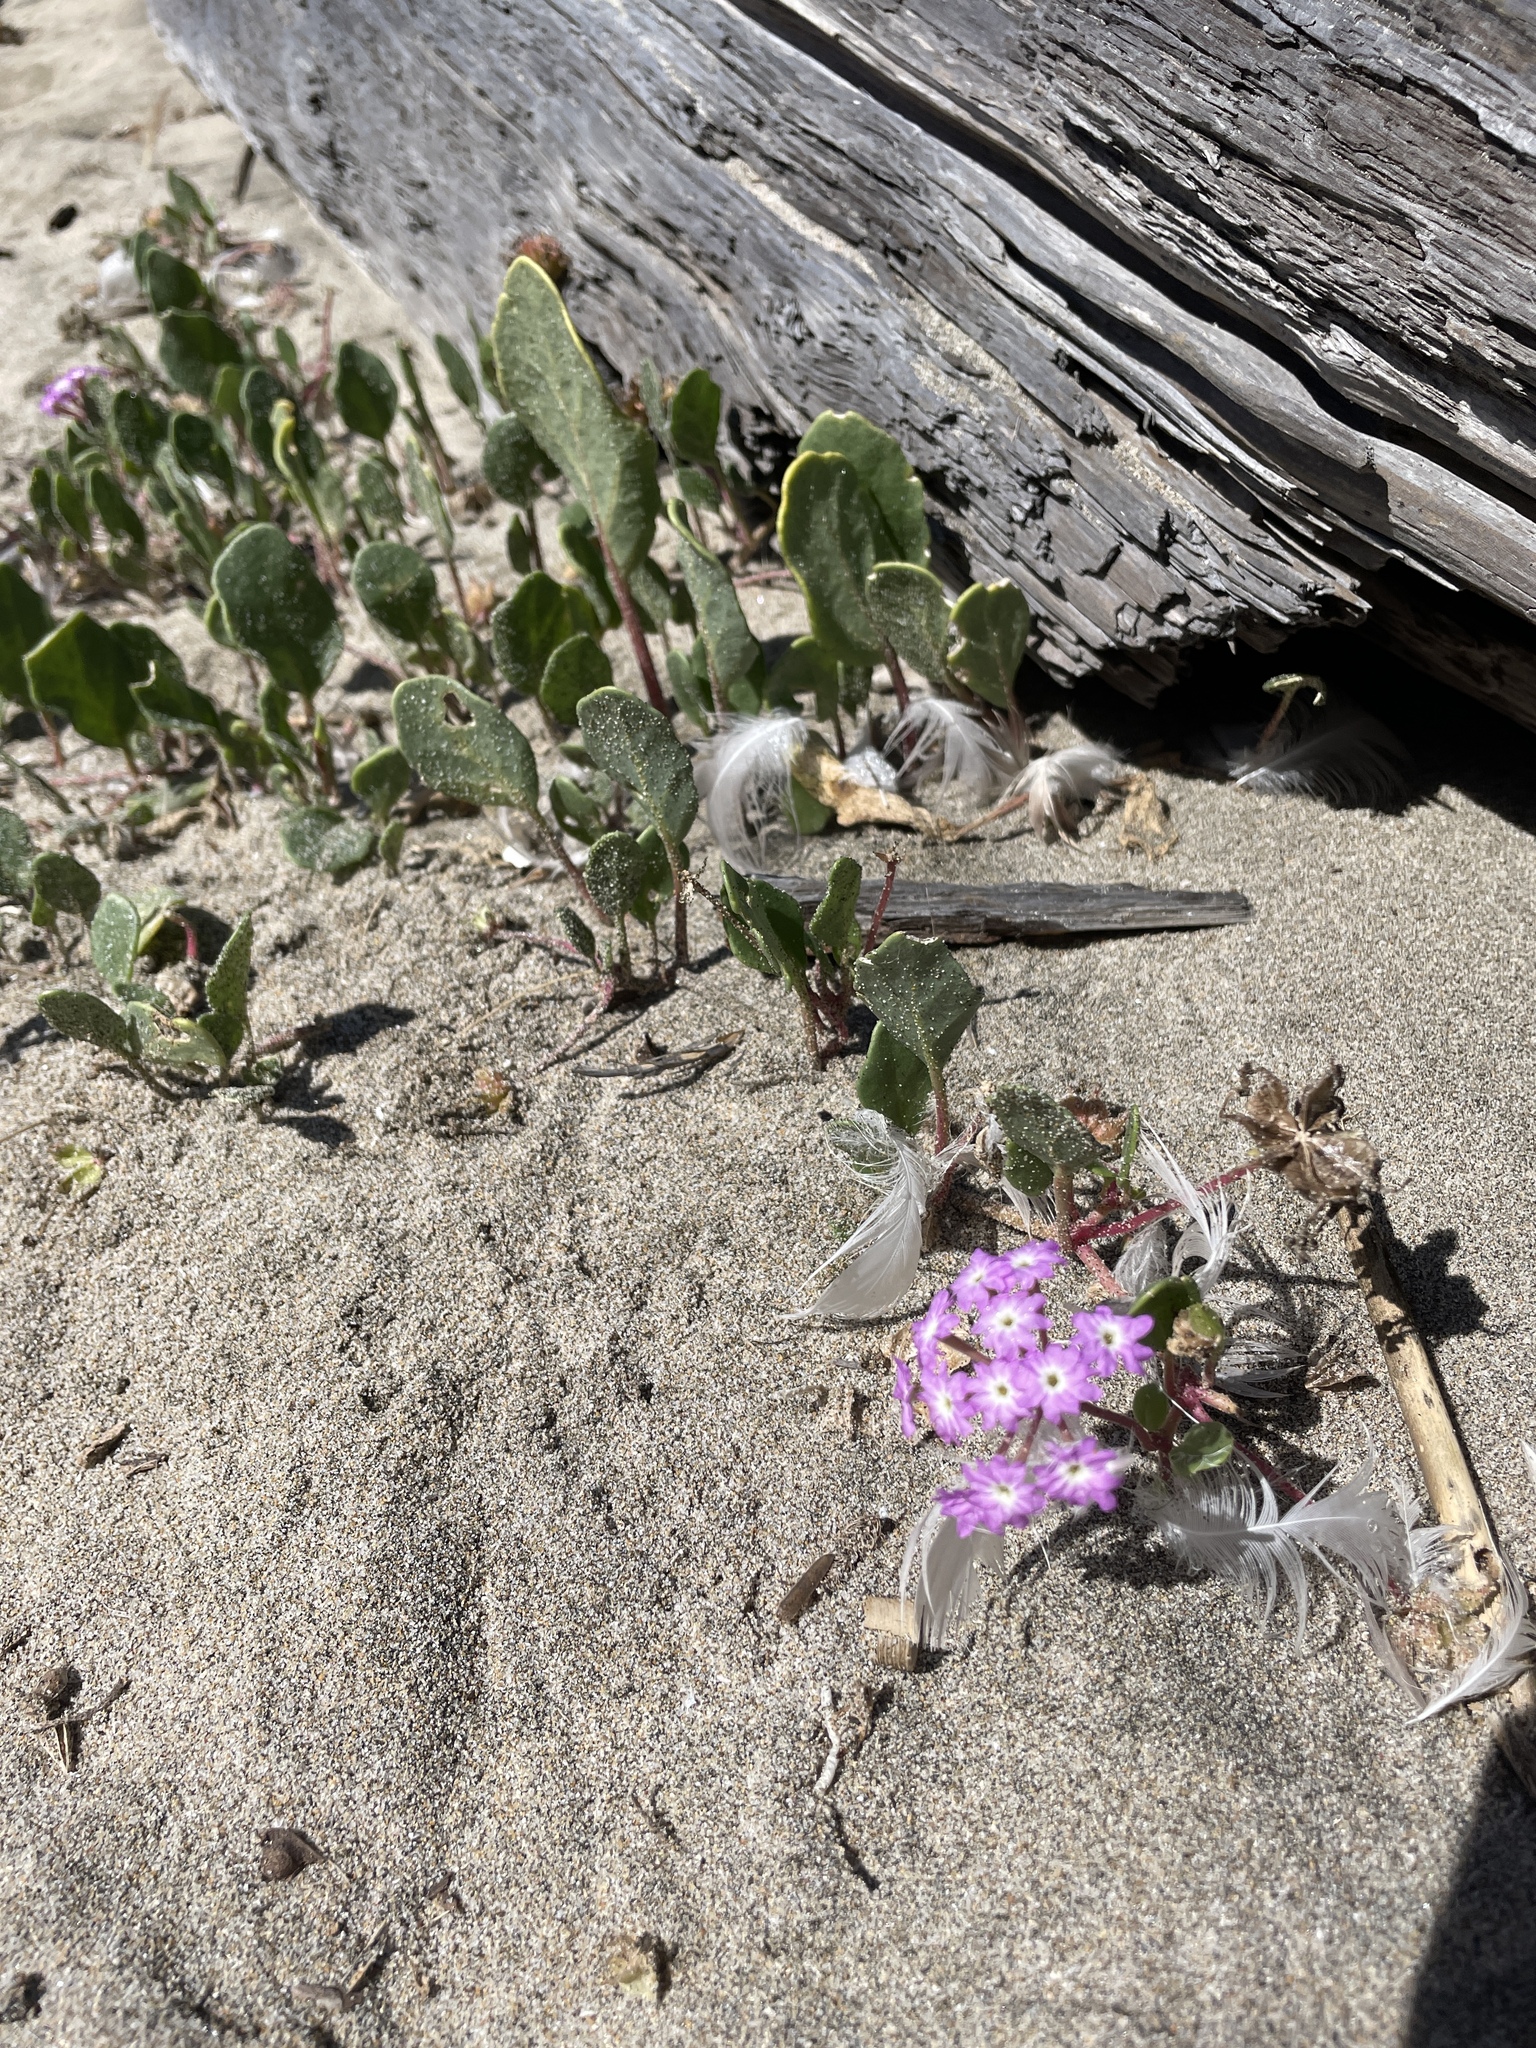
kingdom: Plantae
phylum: Tracheophyta
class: Magnoliopsida
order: Caryophyllales
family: Nyctaginaceae
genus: Abronia
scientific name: Abronia umbellata
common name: Sand-verbena
